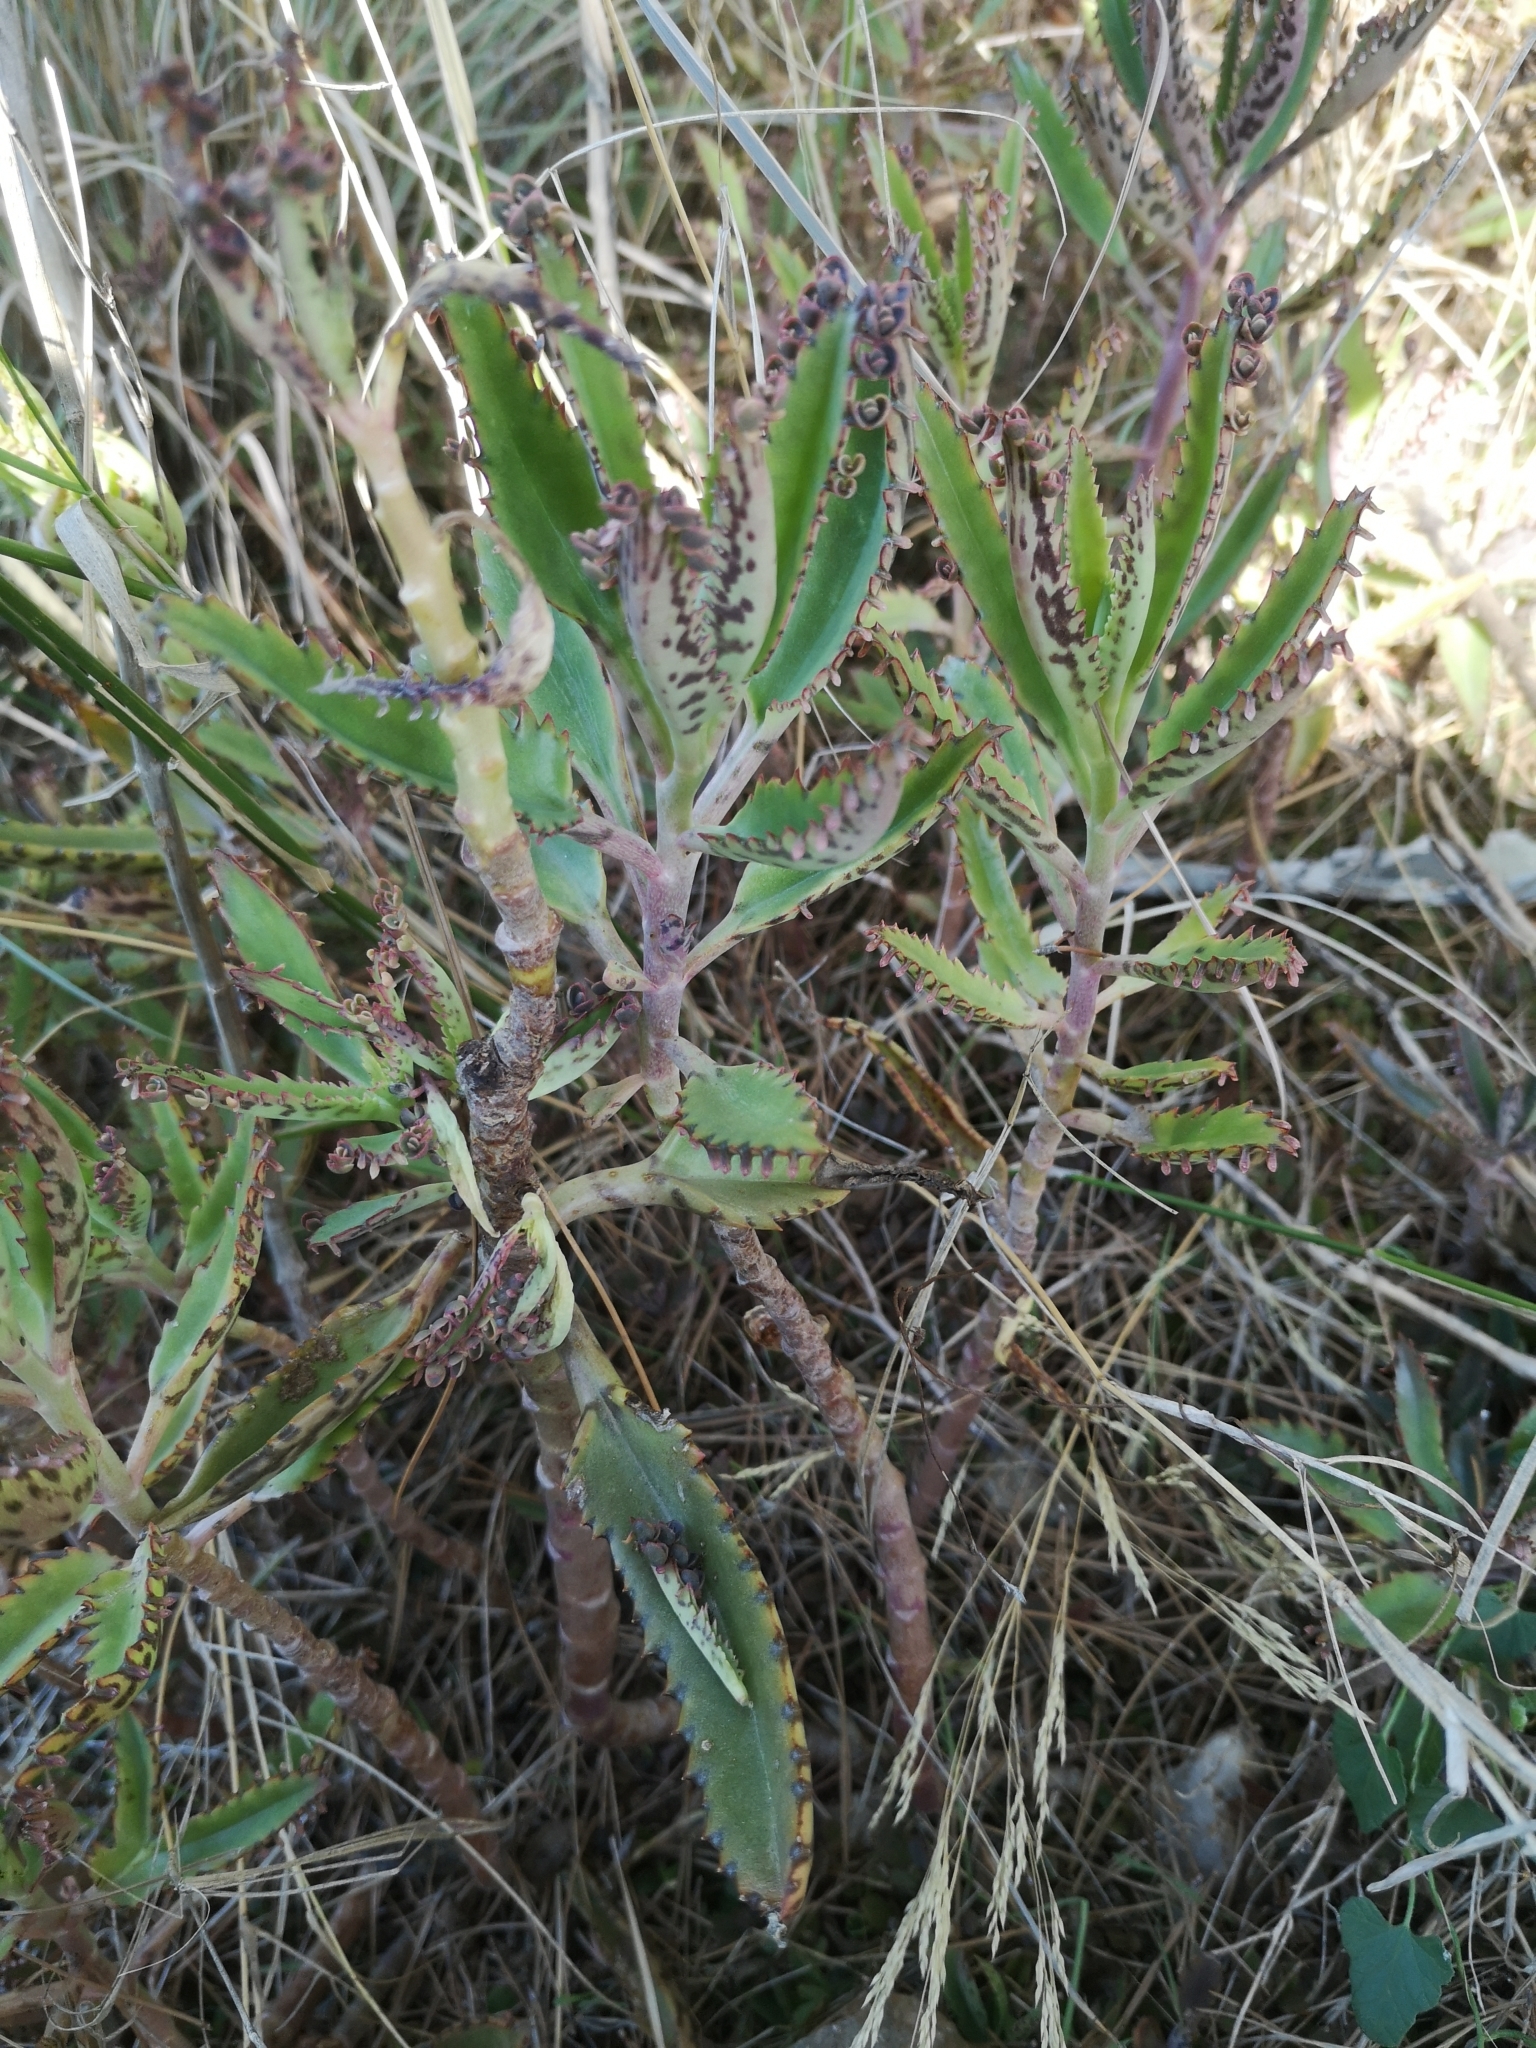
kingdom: Plantae
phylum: Tracheophyta
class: Magnoliopsida
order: Saxifragales
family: Crassulaceae
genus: Kalanchoe
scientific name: Kalanchoe houghtonii
